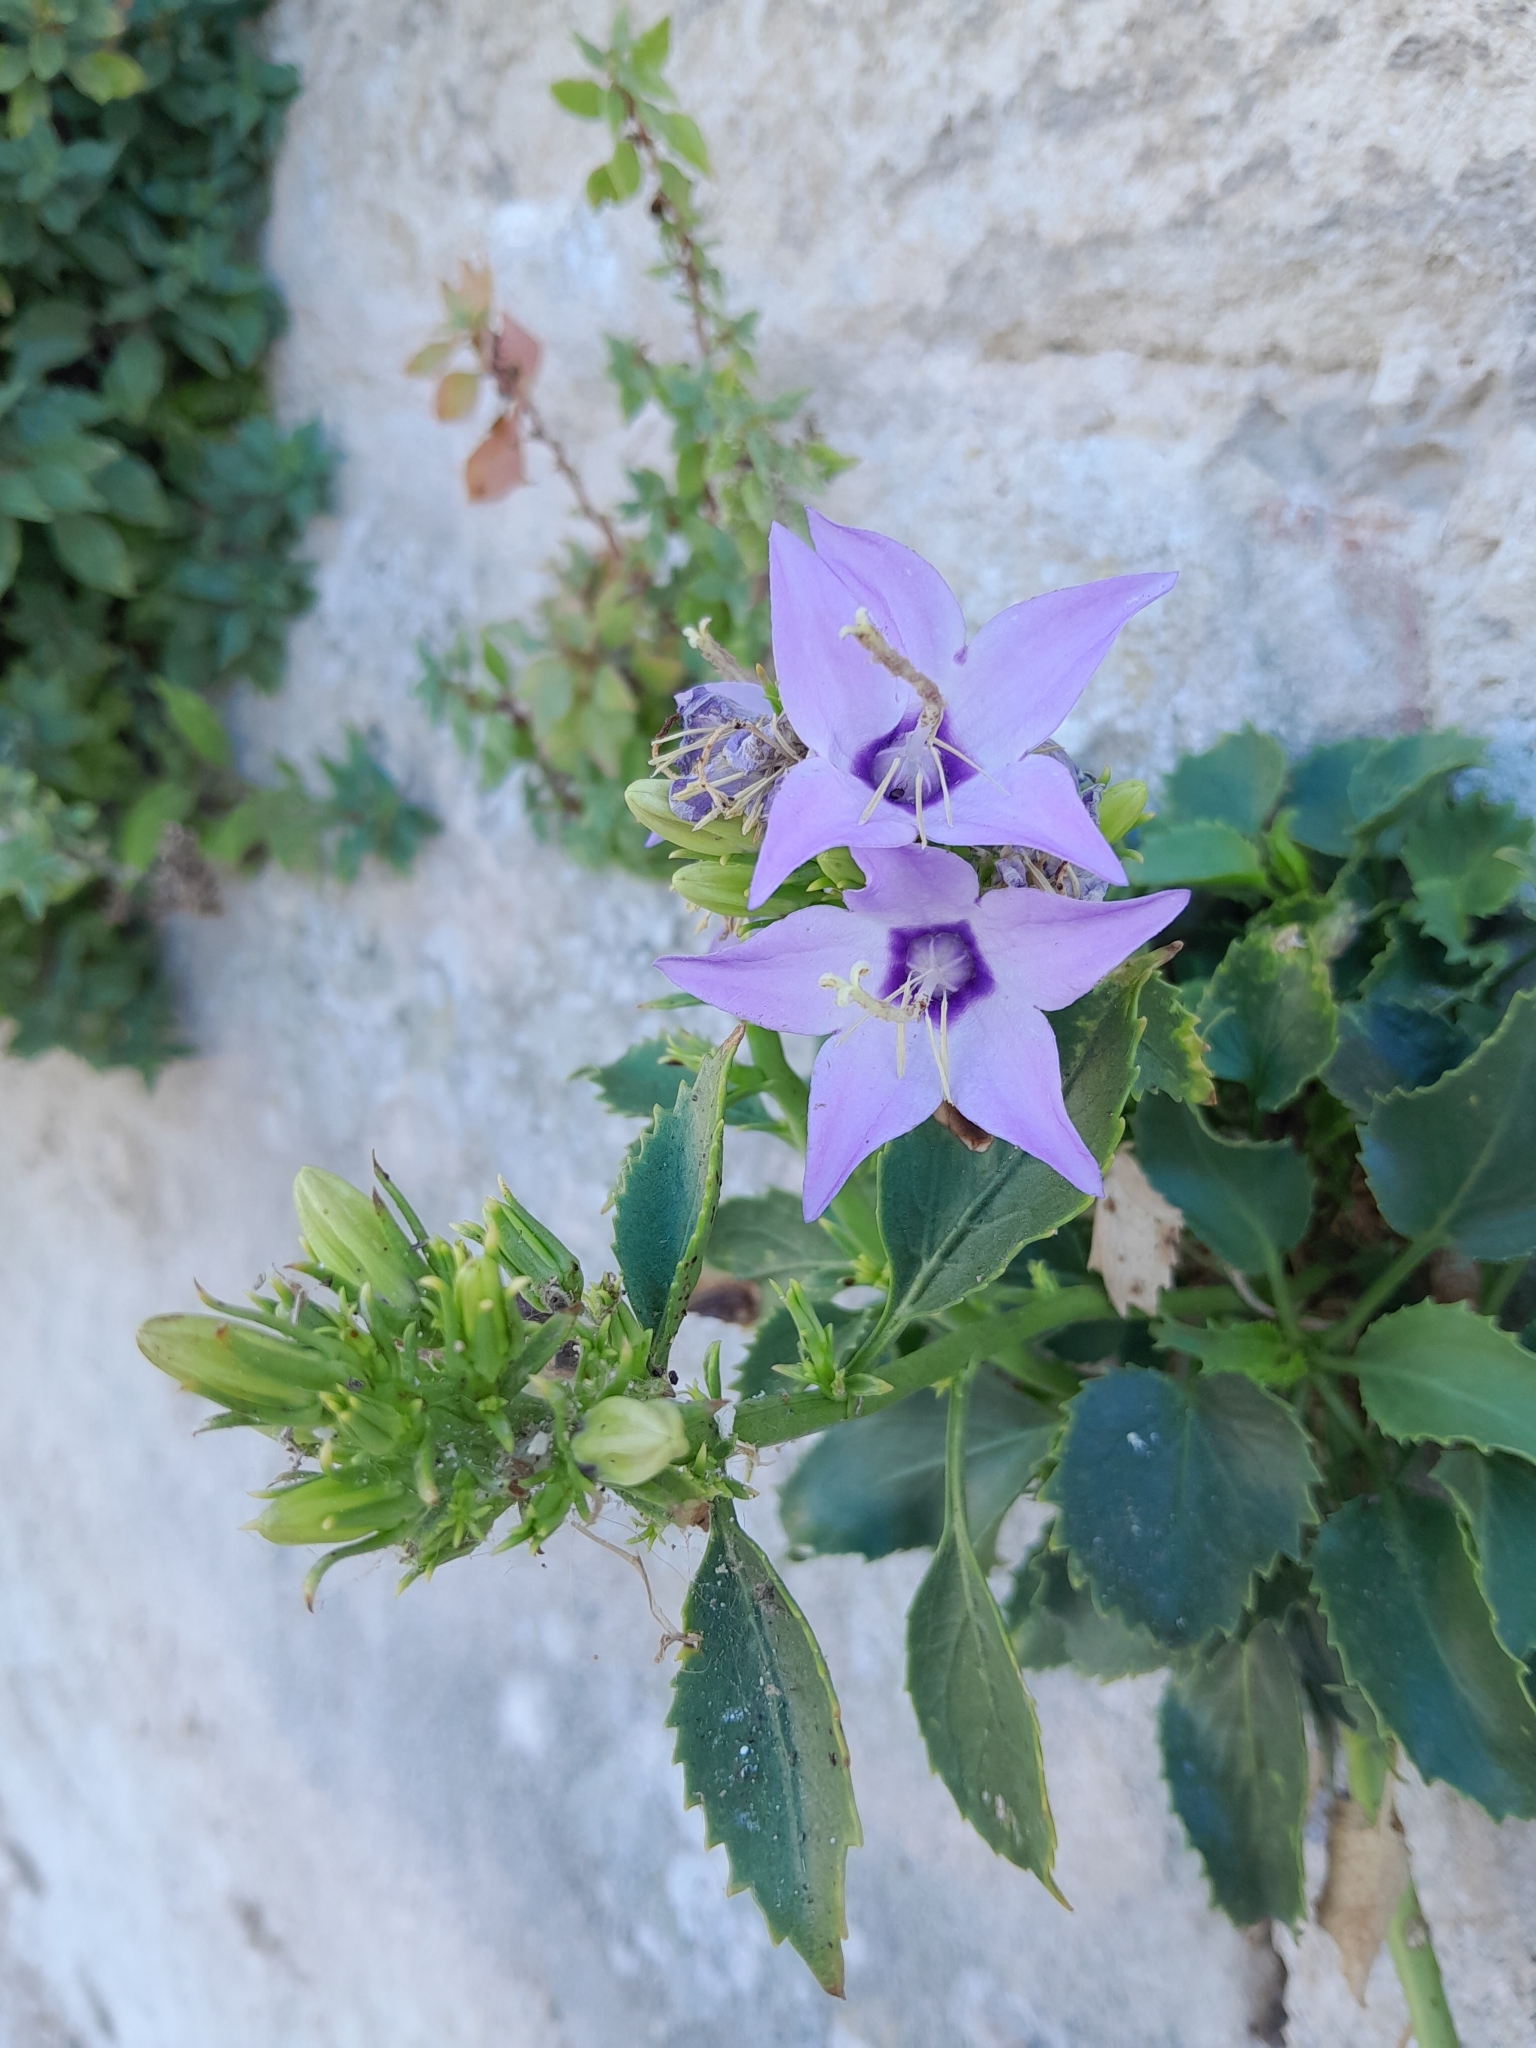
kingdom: Plantae
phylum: Tracheophyta
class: Magnoliopsida
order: Asterales
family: Campanulaceae
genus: Campanula
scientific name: Campanula versicolor
